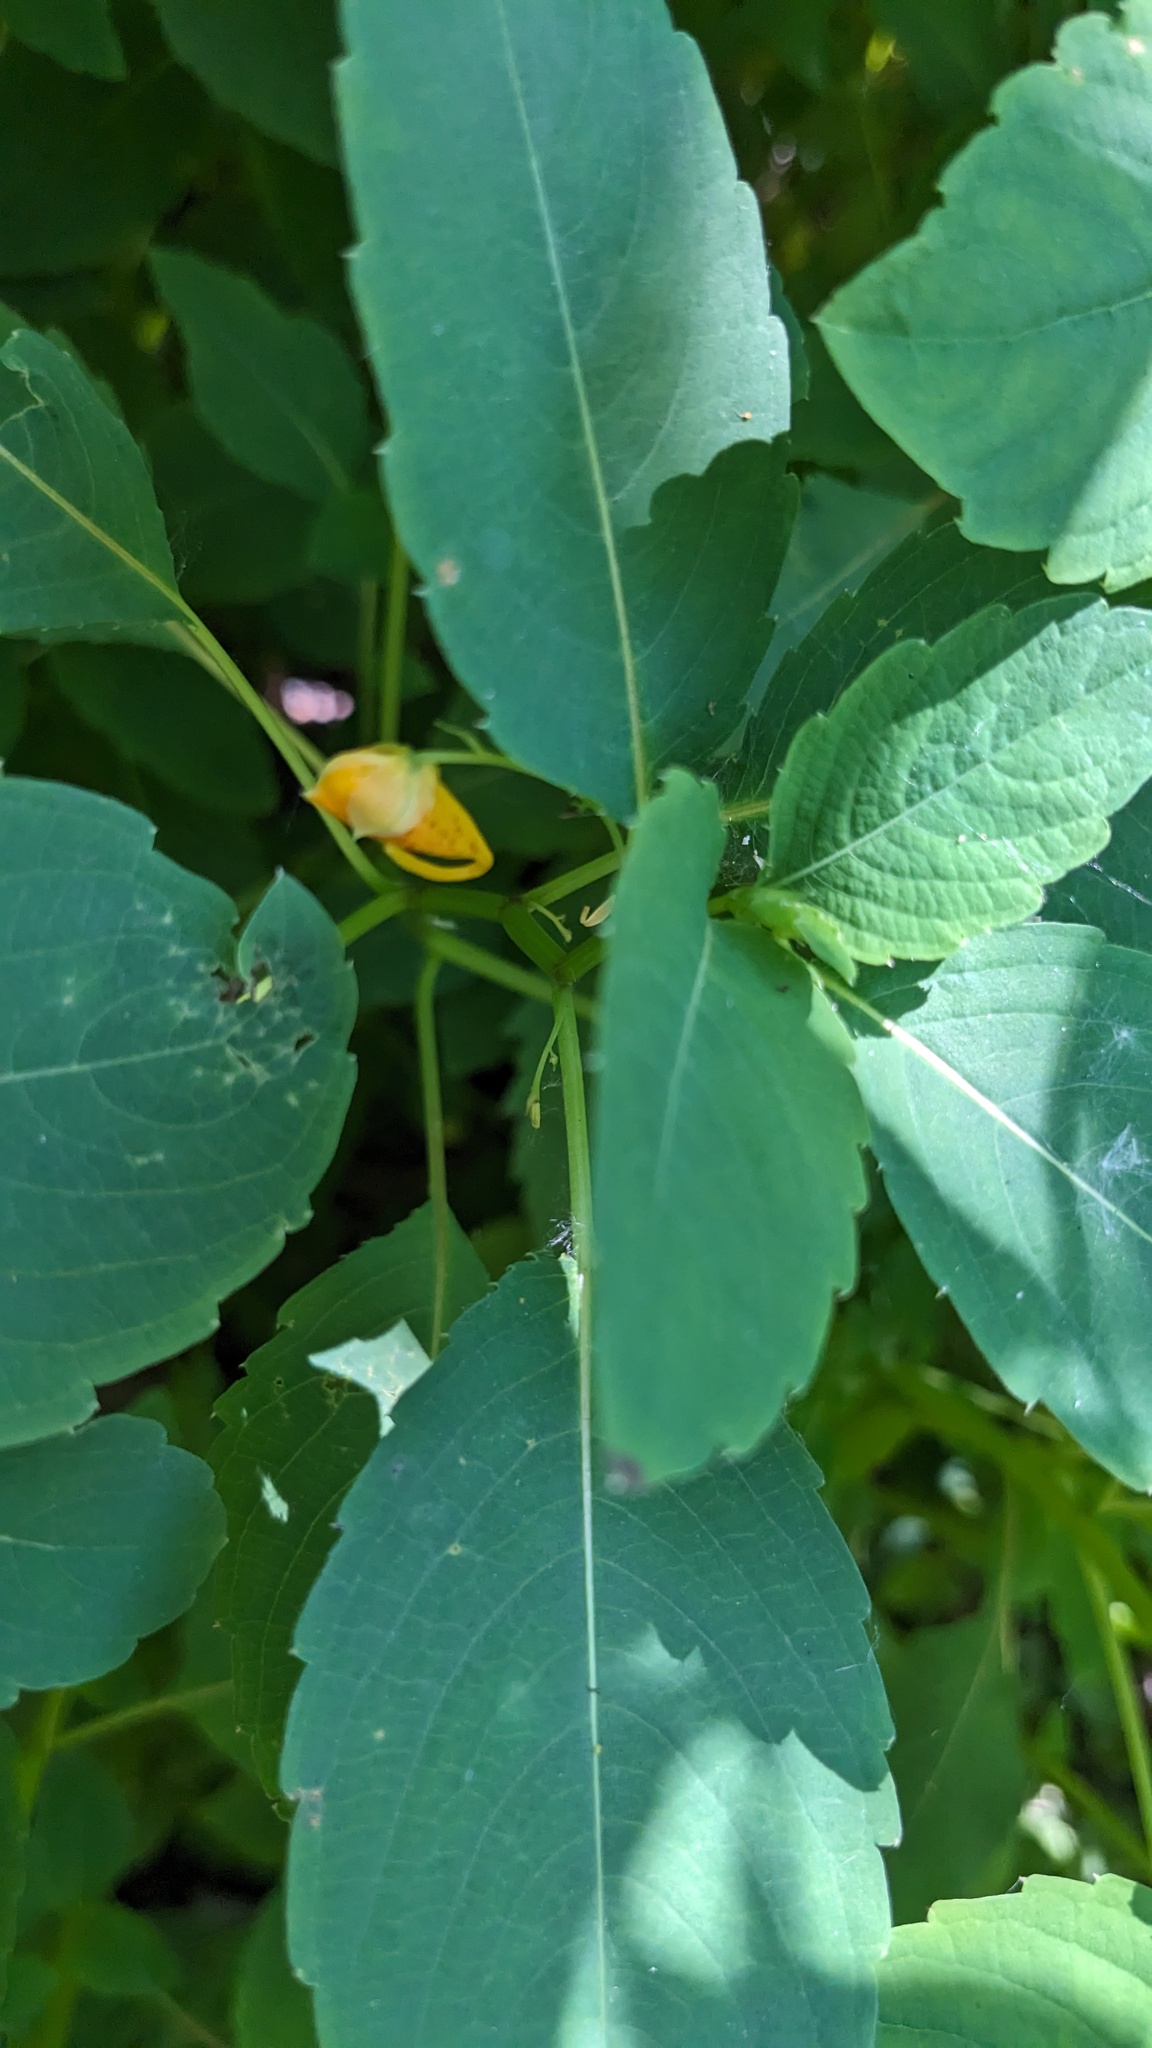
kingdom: Animalia
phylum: Arthropoda
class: Insecta
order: Diptera
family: Agromyzidae
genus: Phytoliriomyza
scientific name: Phytoliriomyza melampyga
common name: Jewelweed leaf-miner fly
